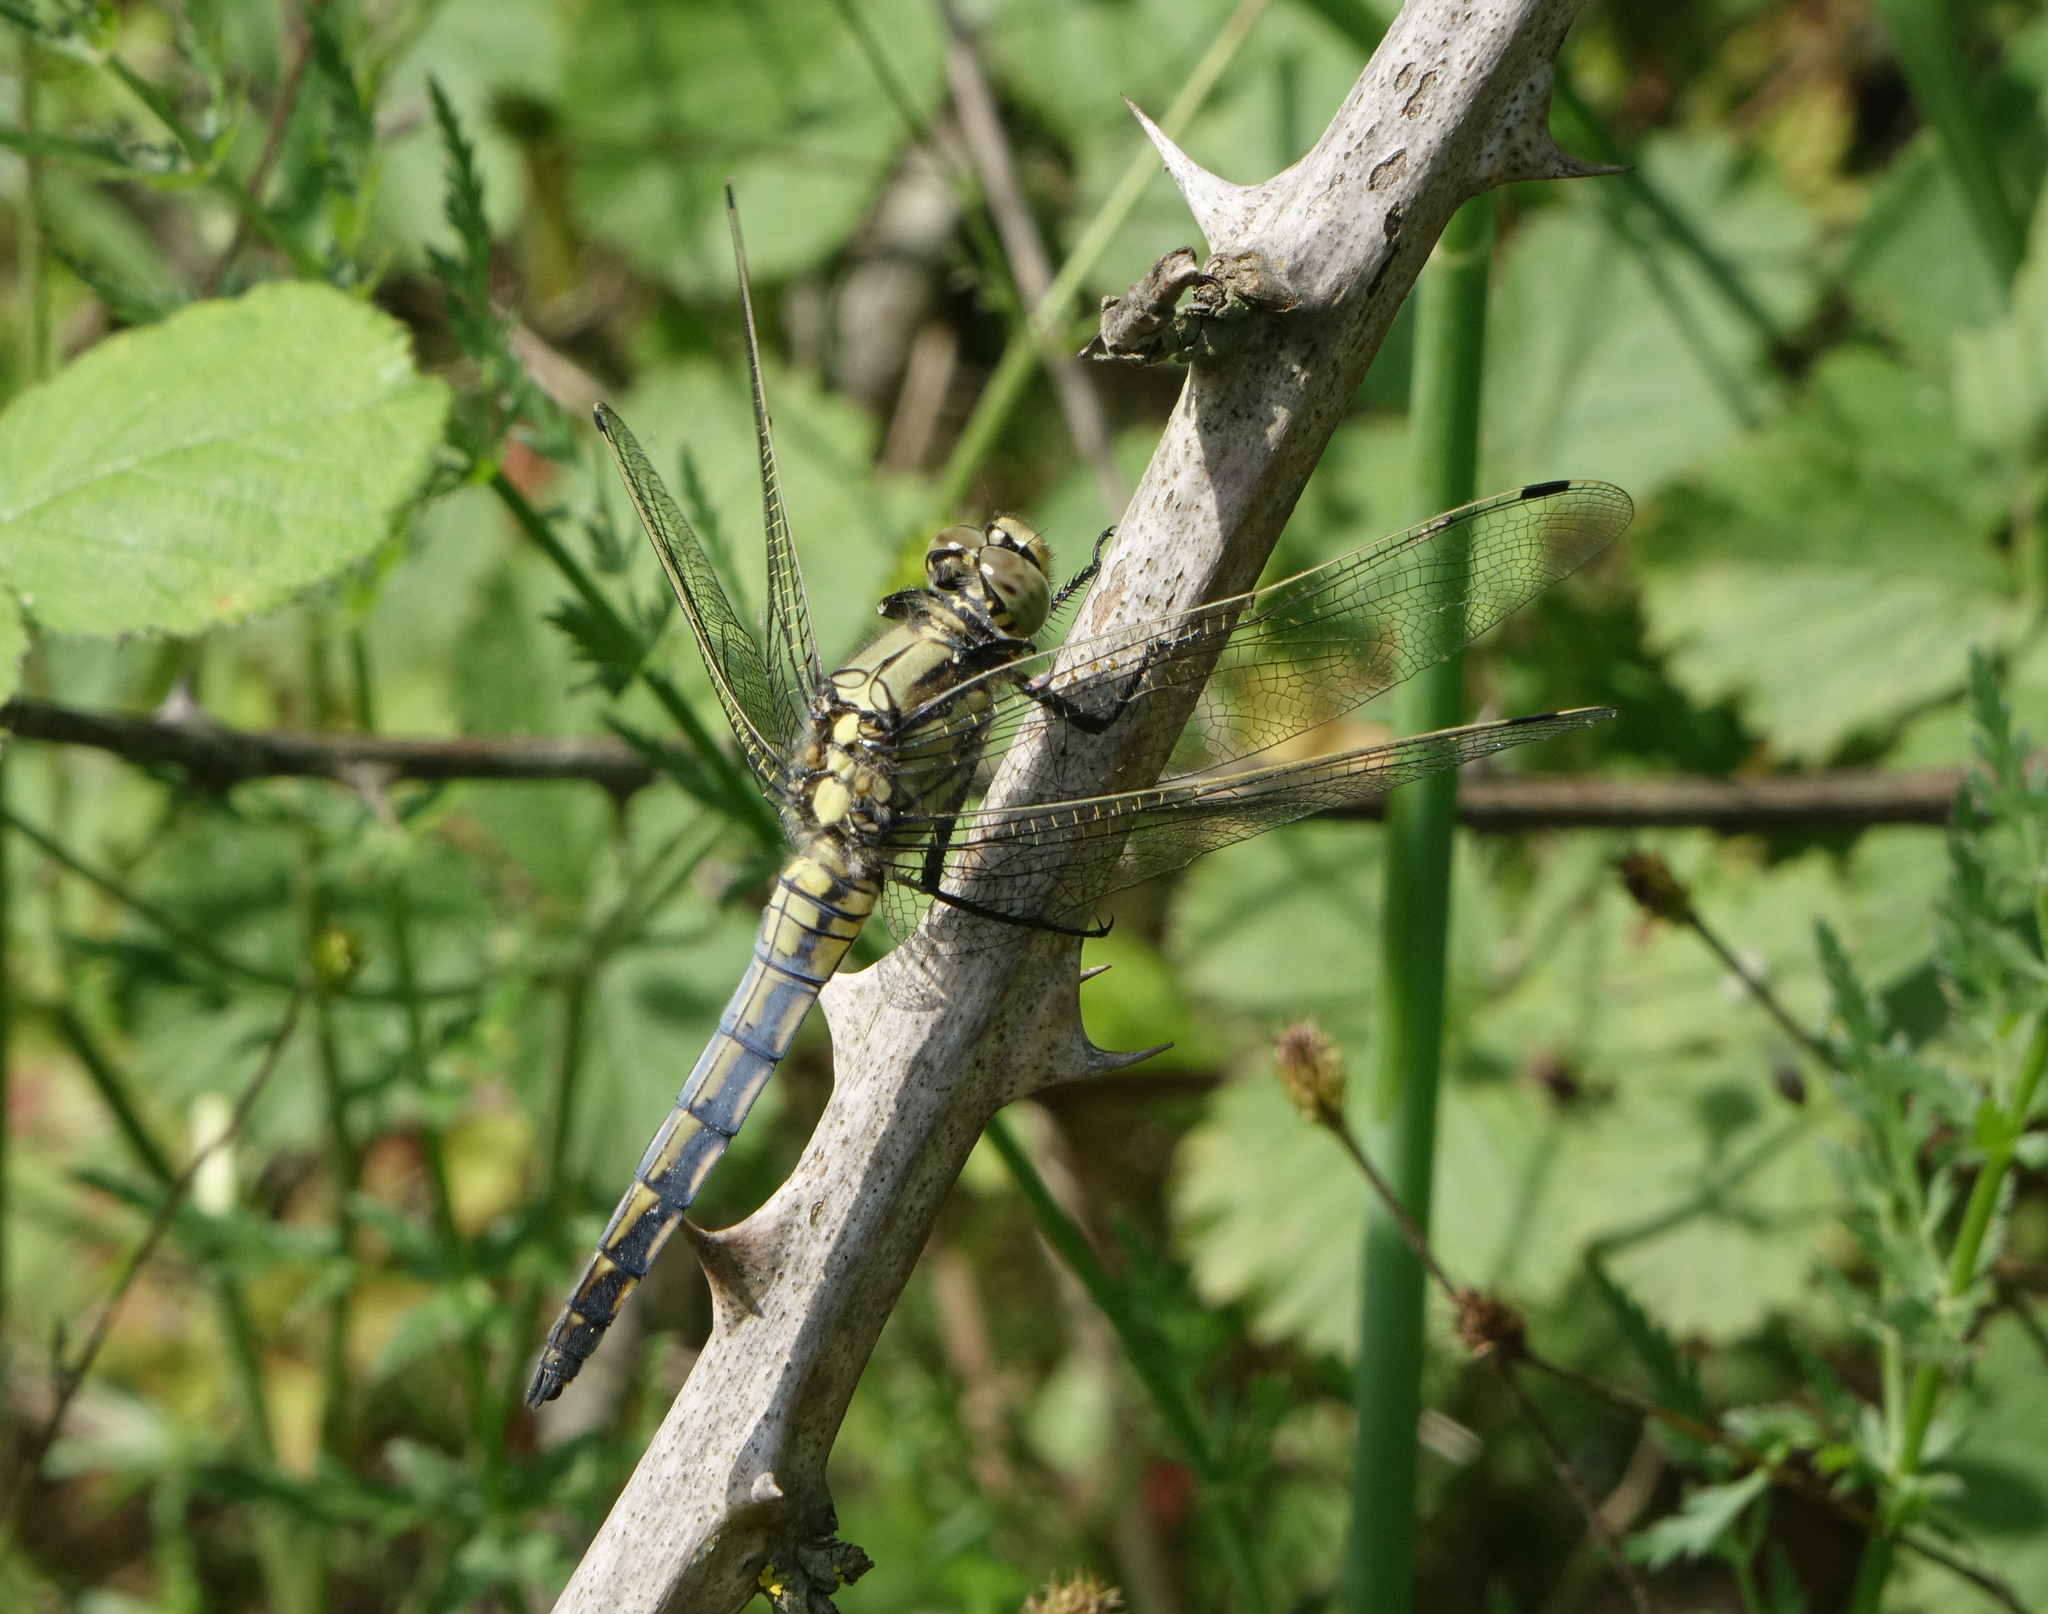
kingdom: Animalia
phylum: Arthropoda
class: Insecta
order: Odonata
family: Libellulidae
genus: Orthetrum
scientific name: Orthetrum cancellatum
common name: Black-tailed skimmer
